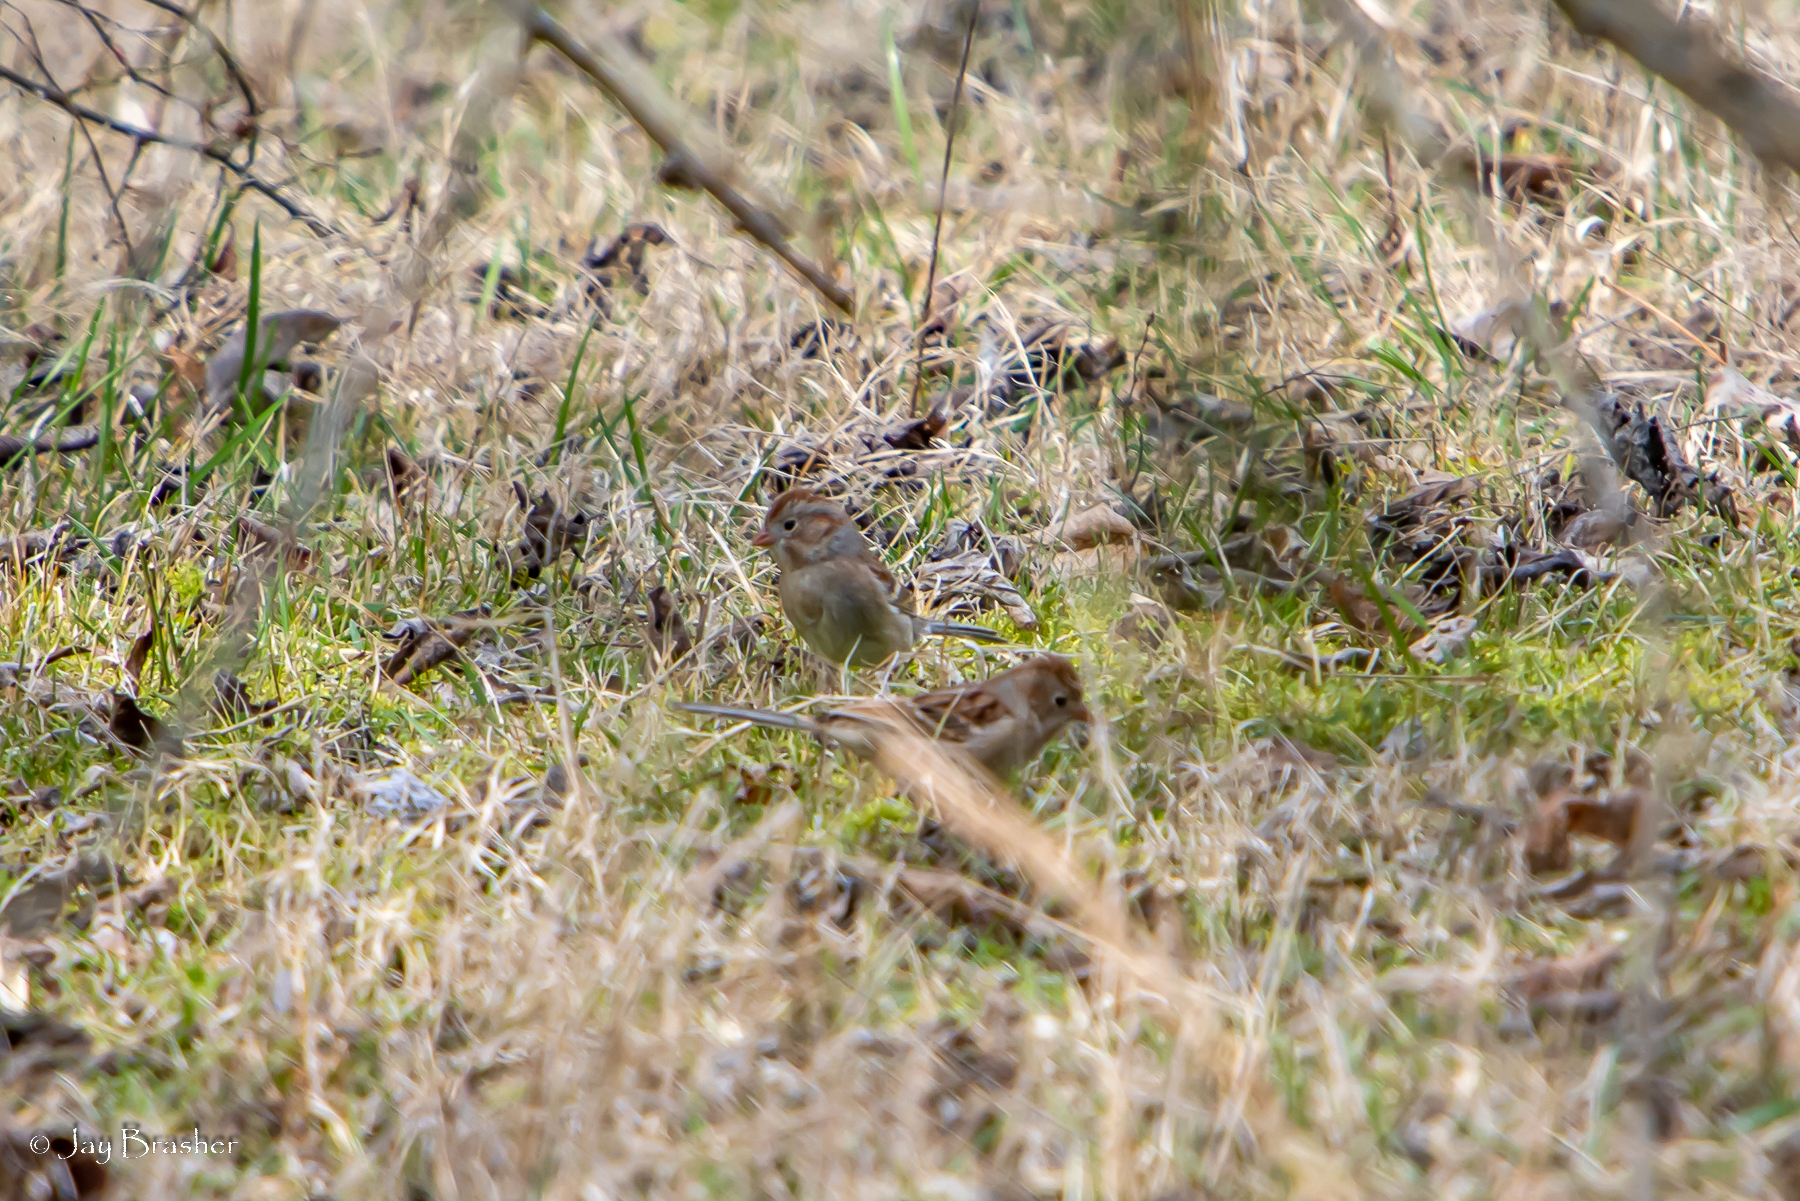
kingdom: Animalia
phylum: Chordata
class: Aves
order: Passeriformes
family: Passerellidae
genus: Spizella
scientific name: Spizella pusilla
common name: Field sparrow
